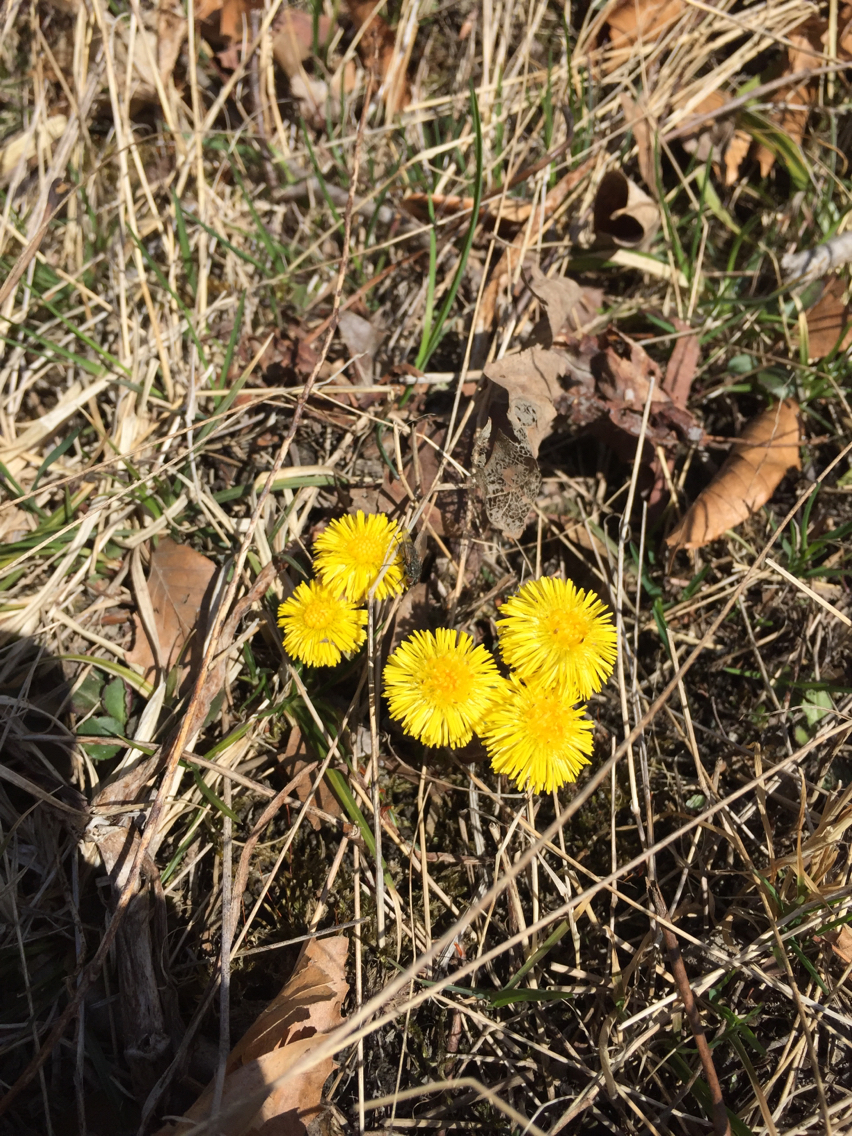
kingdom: Plantae
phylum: Tracheophyta
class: Magnoliopsida
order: Asterales
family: Asteraceae
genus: Tussilago
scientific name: Tussilago farfara
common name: Coltsfoot
